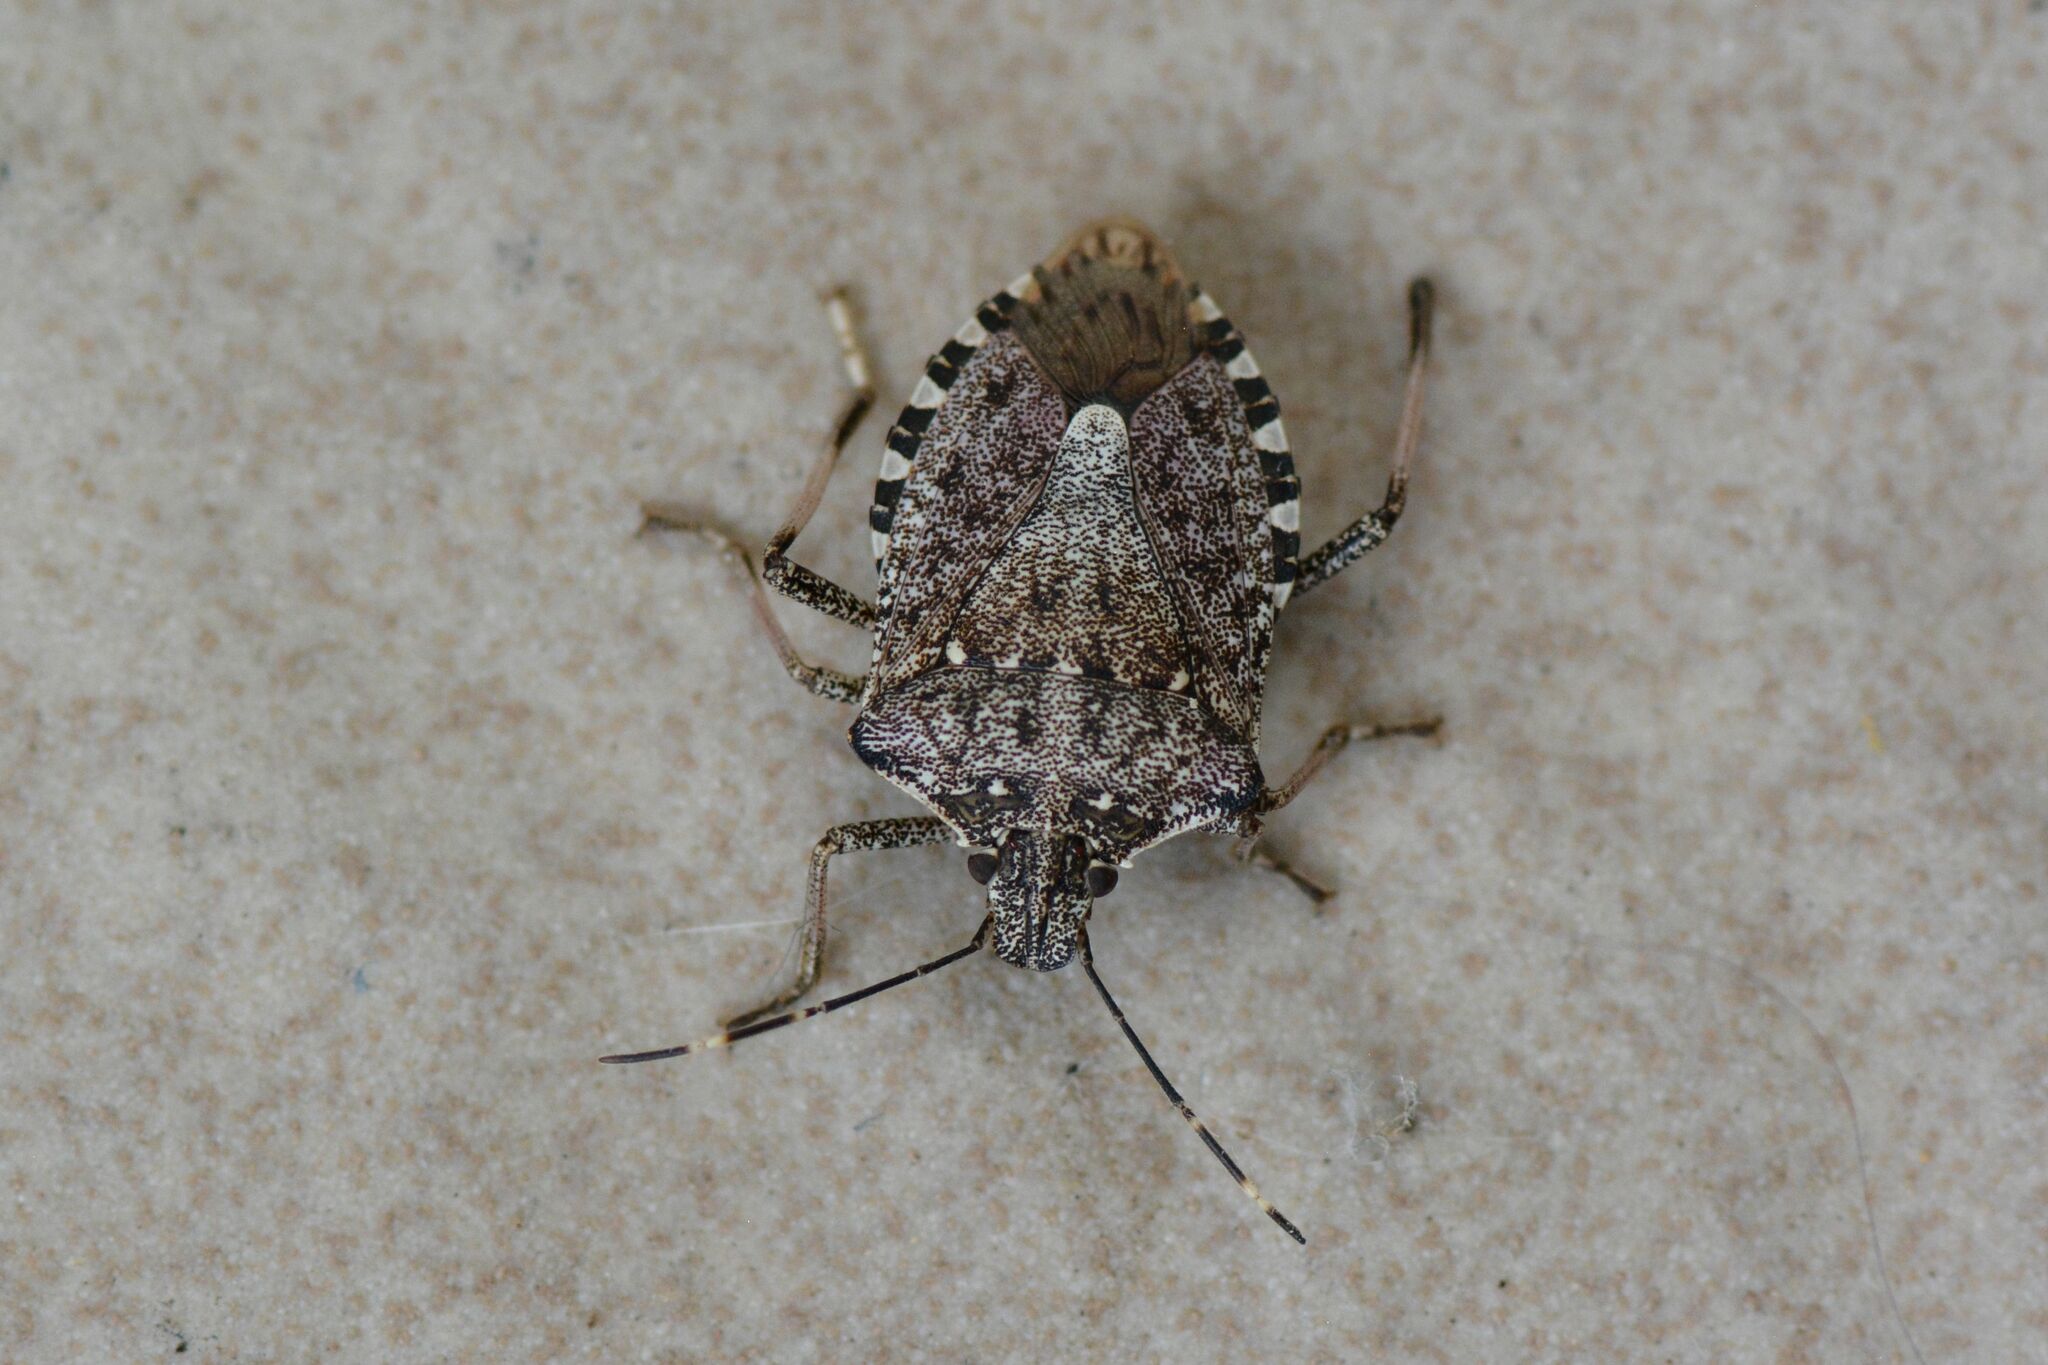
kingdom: Animalia
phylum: Arthropoda
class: Insecta
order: Hemiptera
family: Pentatomidae
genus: Halyomorpha
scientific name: Halyomorpha halys
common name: Brown marmorated stink bug
